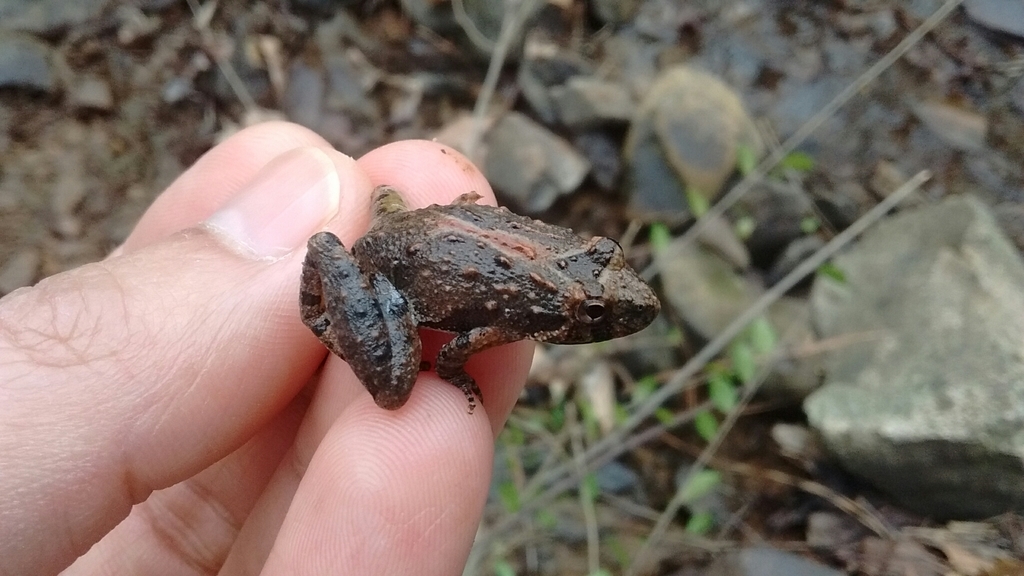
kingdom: Animalia
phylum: Chordata
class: Amphibia
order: Anura
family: Hylidae
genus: Acris
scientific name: Acris crepitans
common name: Northern cricket frog
